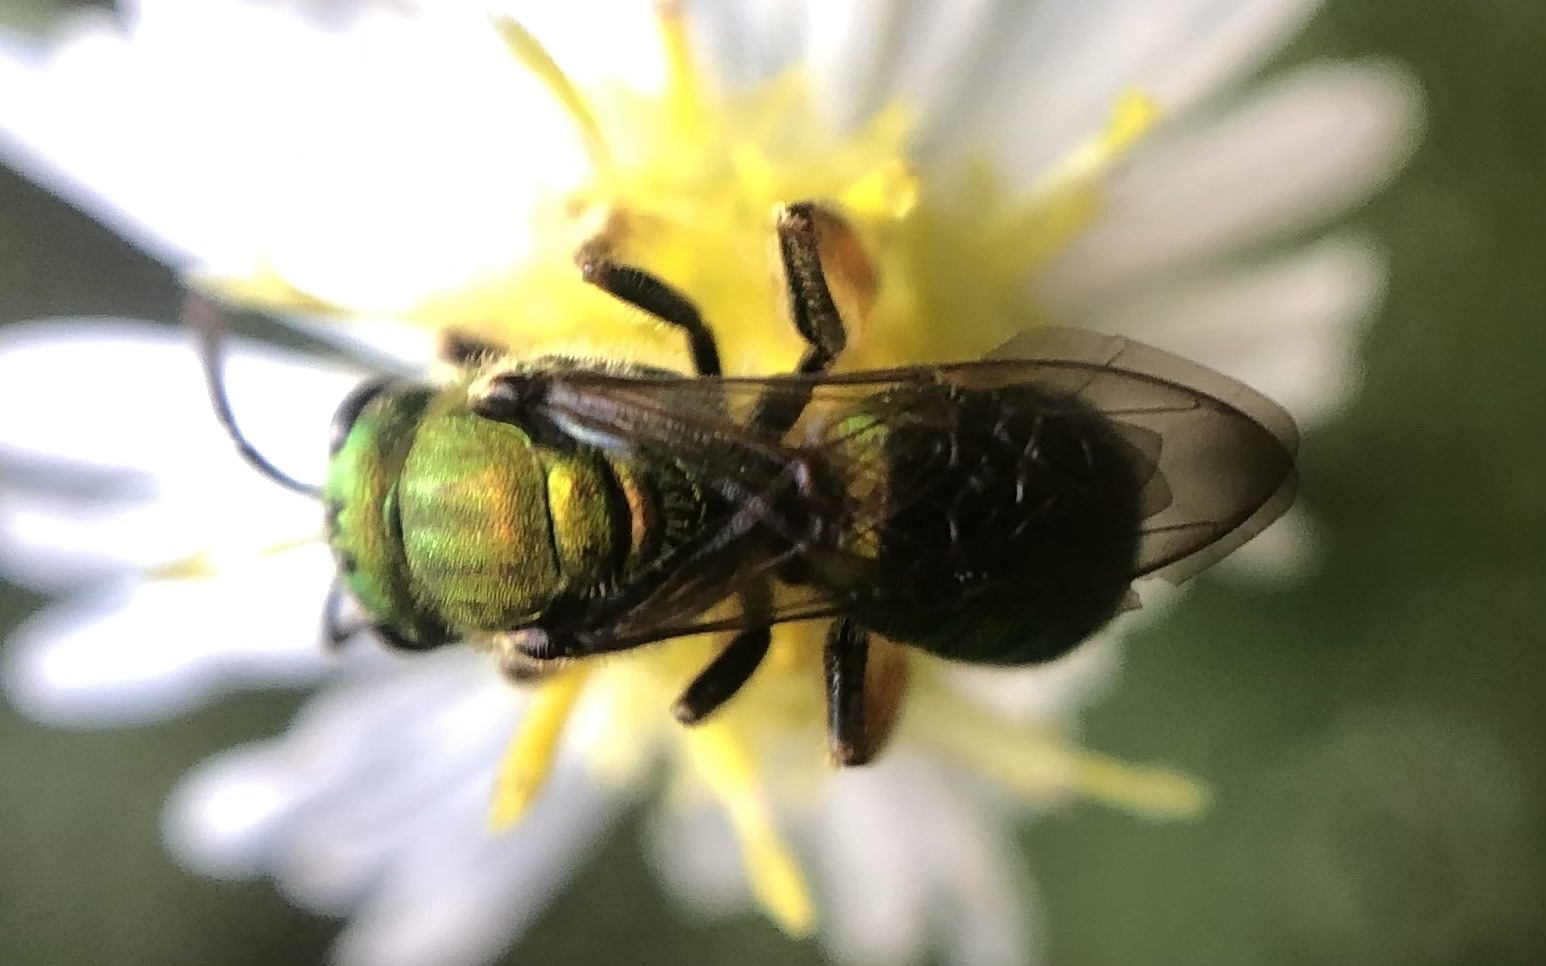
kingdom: Animalia
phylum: Arthropoda
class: Insecta
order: Hymenoptera
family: Halictidae
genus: Augochlora
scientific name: Augochlora pura
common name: Pure green sweat bee
